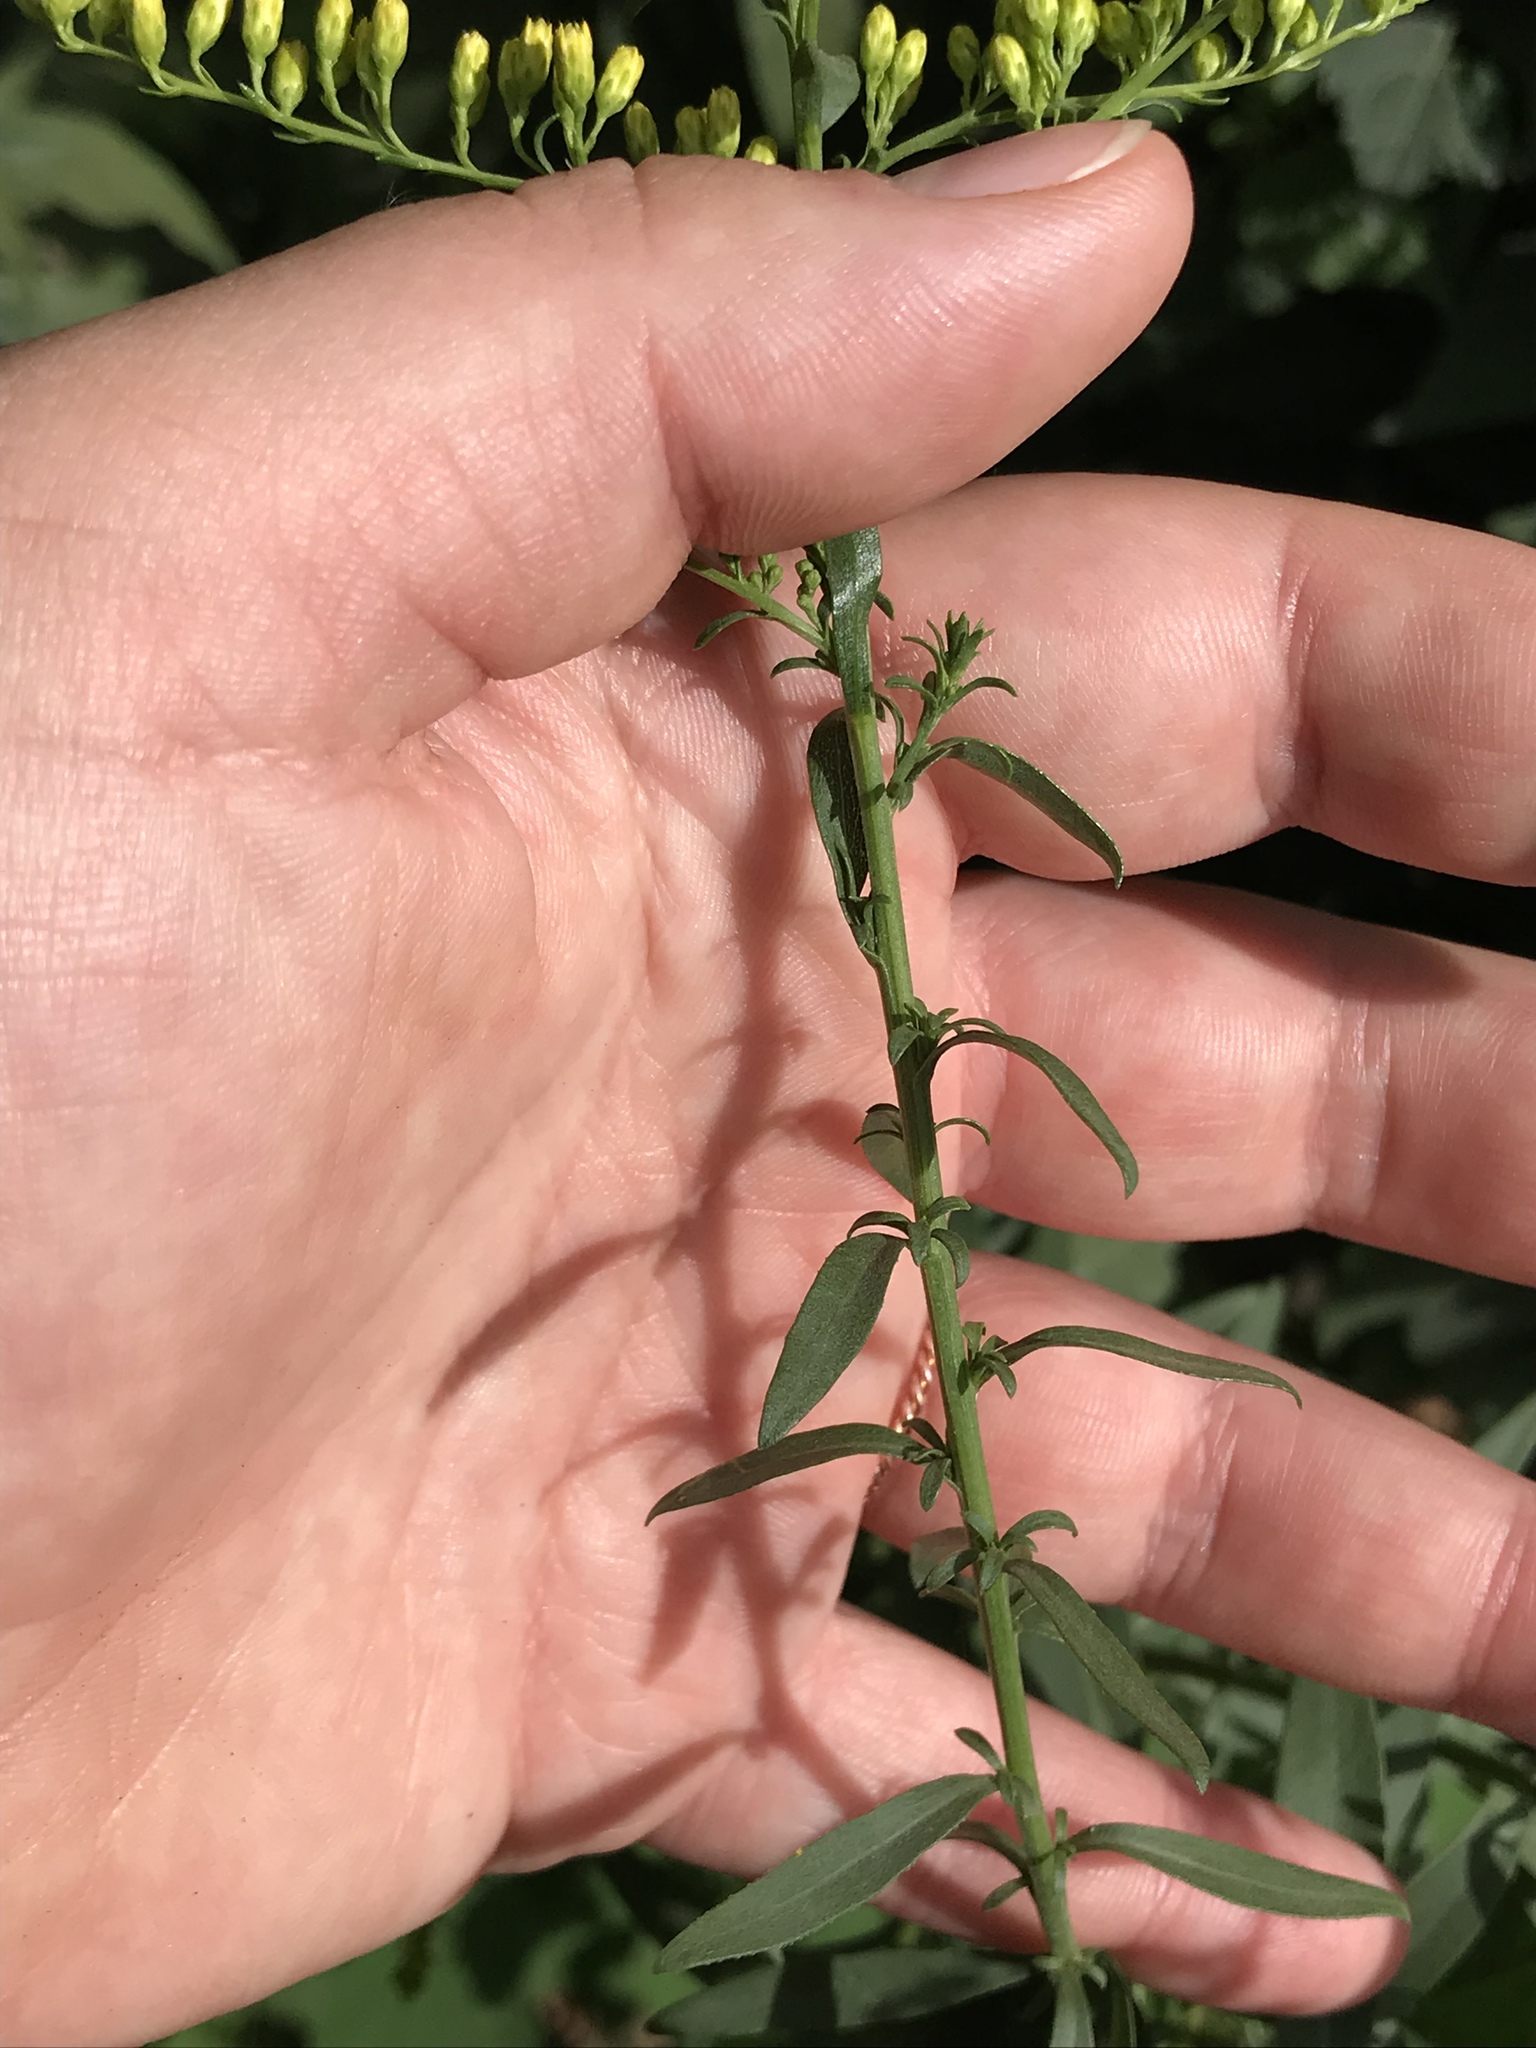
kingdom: Plantae
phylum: Tracheophyta
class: Magnoliopsida
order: Asterales
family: Asteraceae
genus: Solidago
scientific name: Solidago nemoralis
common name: Grey goldenrod
